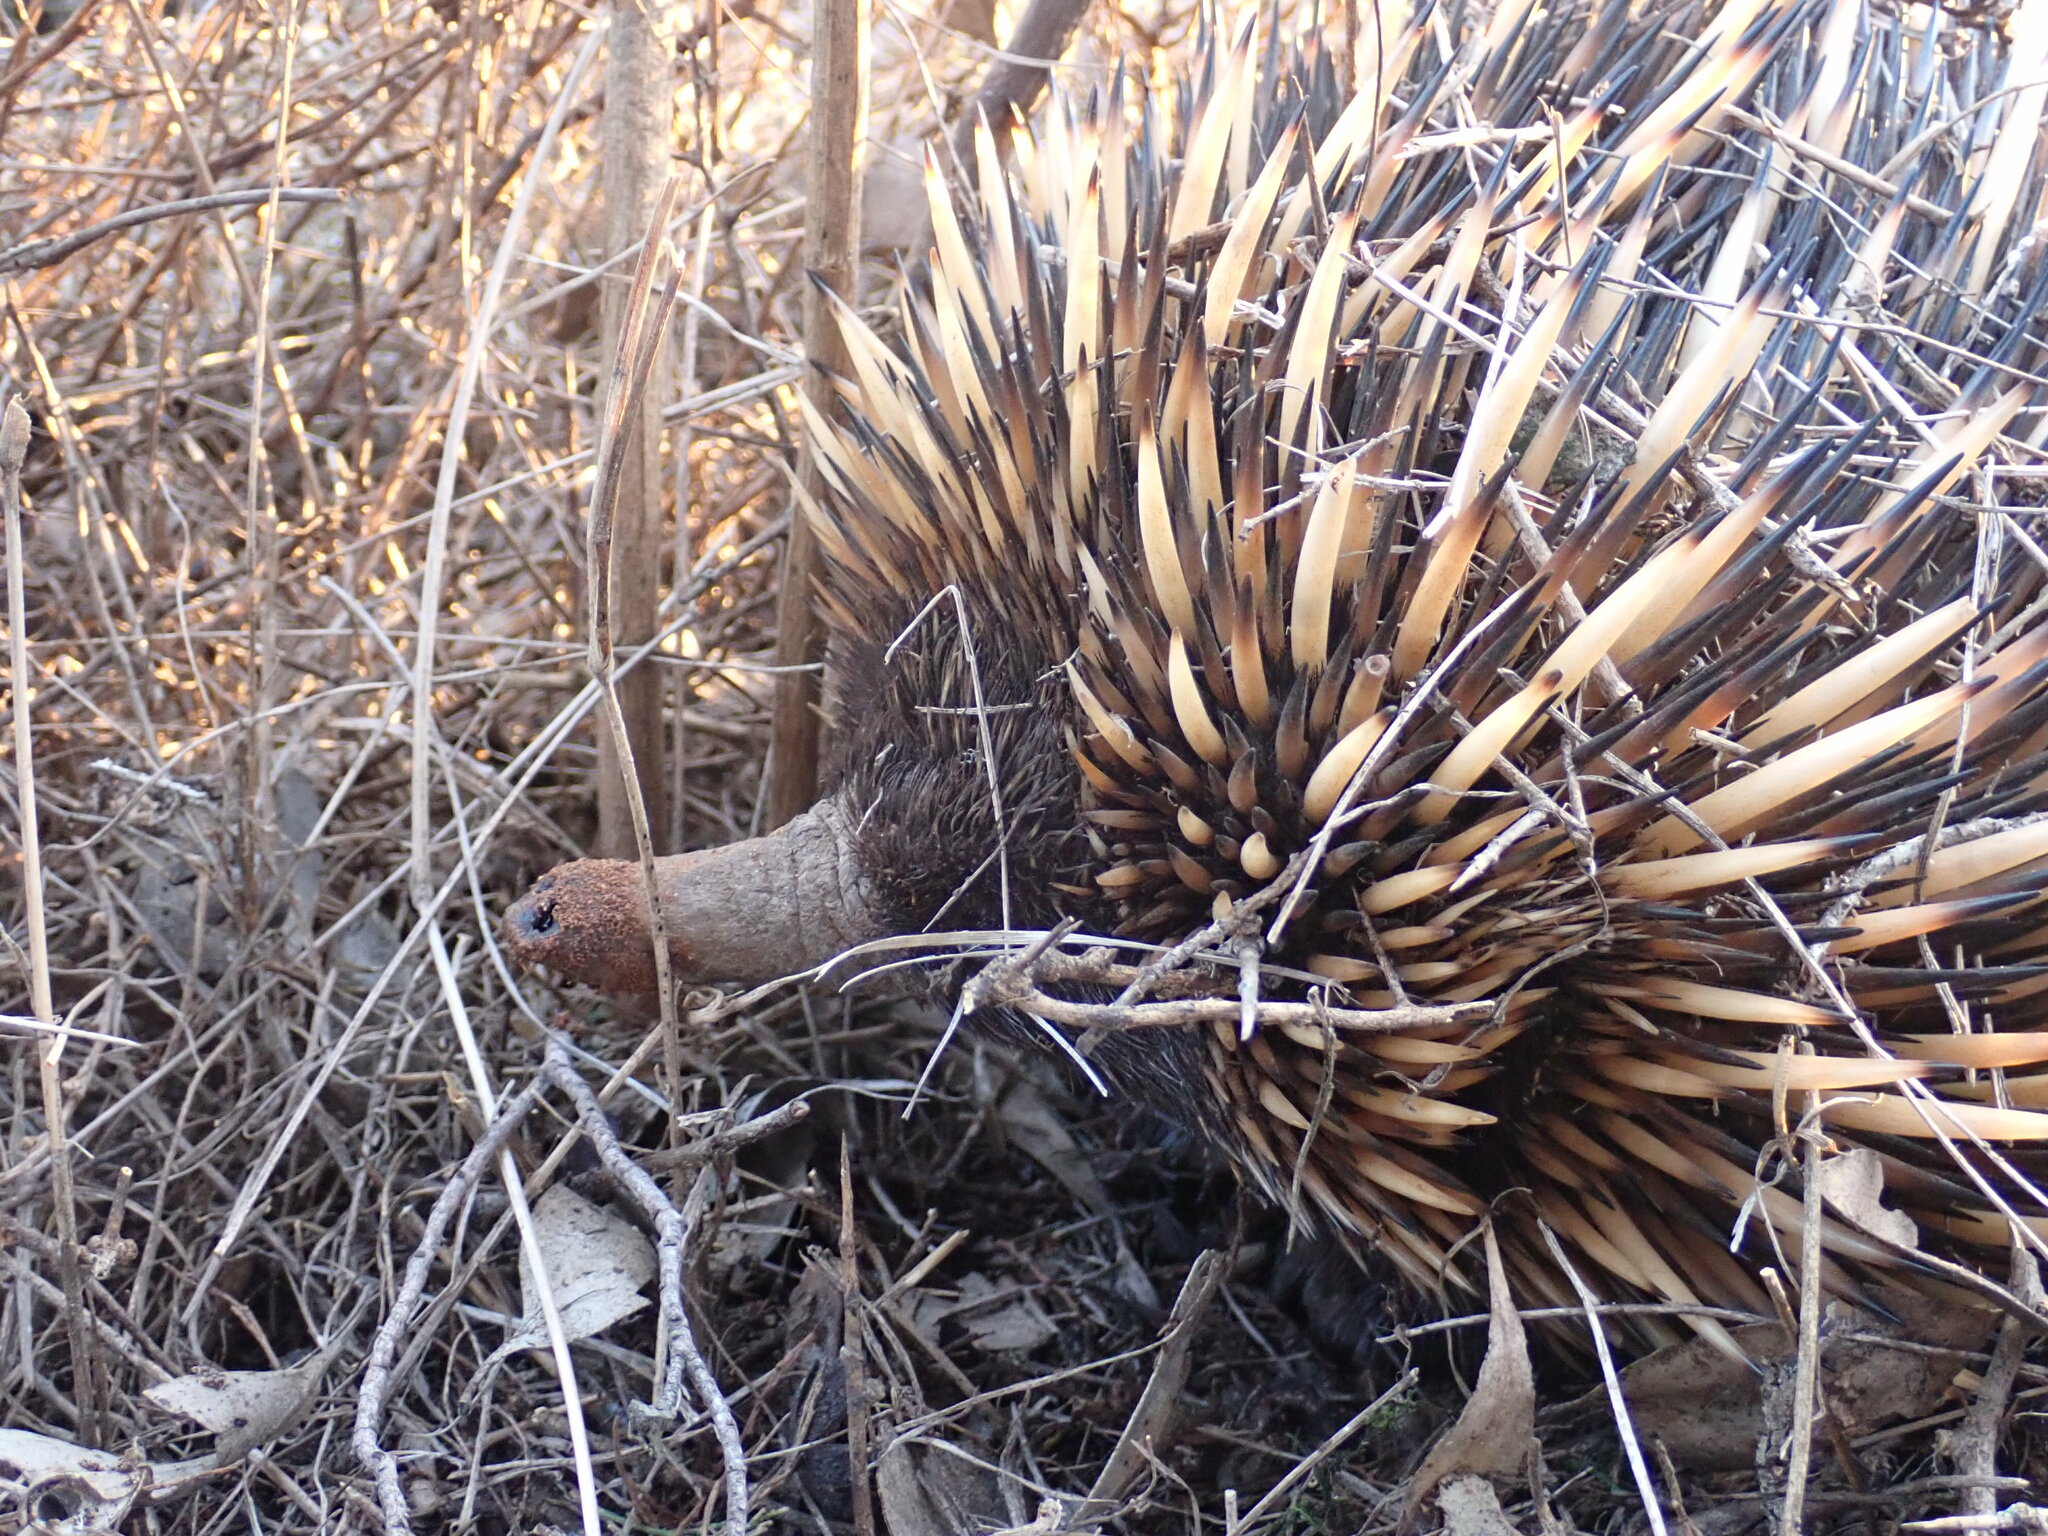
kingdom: Animalia
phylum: Chordata
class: Mammalia
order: Monotremata
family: Tachyglossidae
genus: Tachyglossus
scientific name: Tachyglossus aculeatus
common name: Short-beaked echidna
